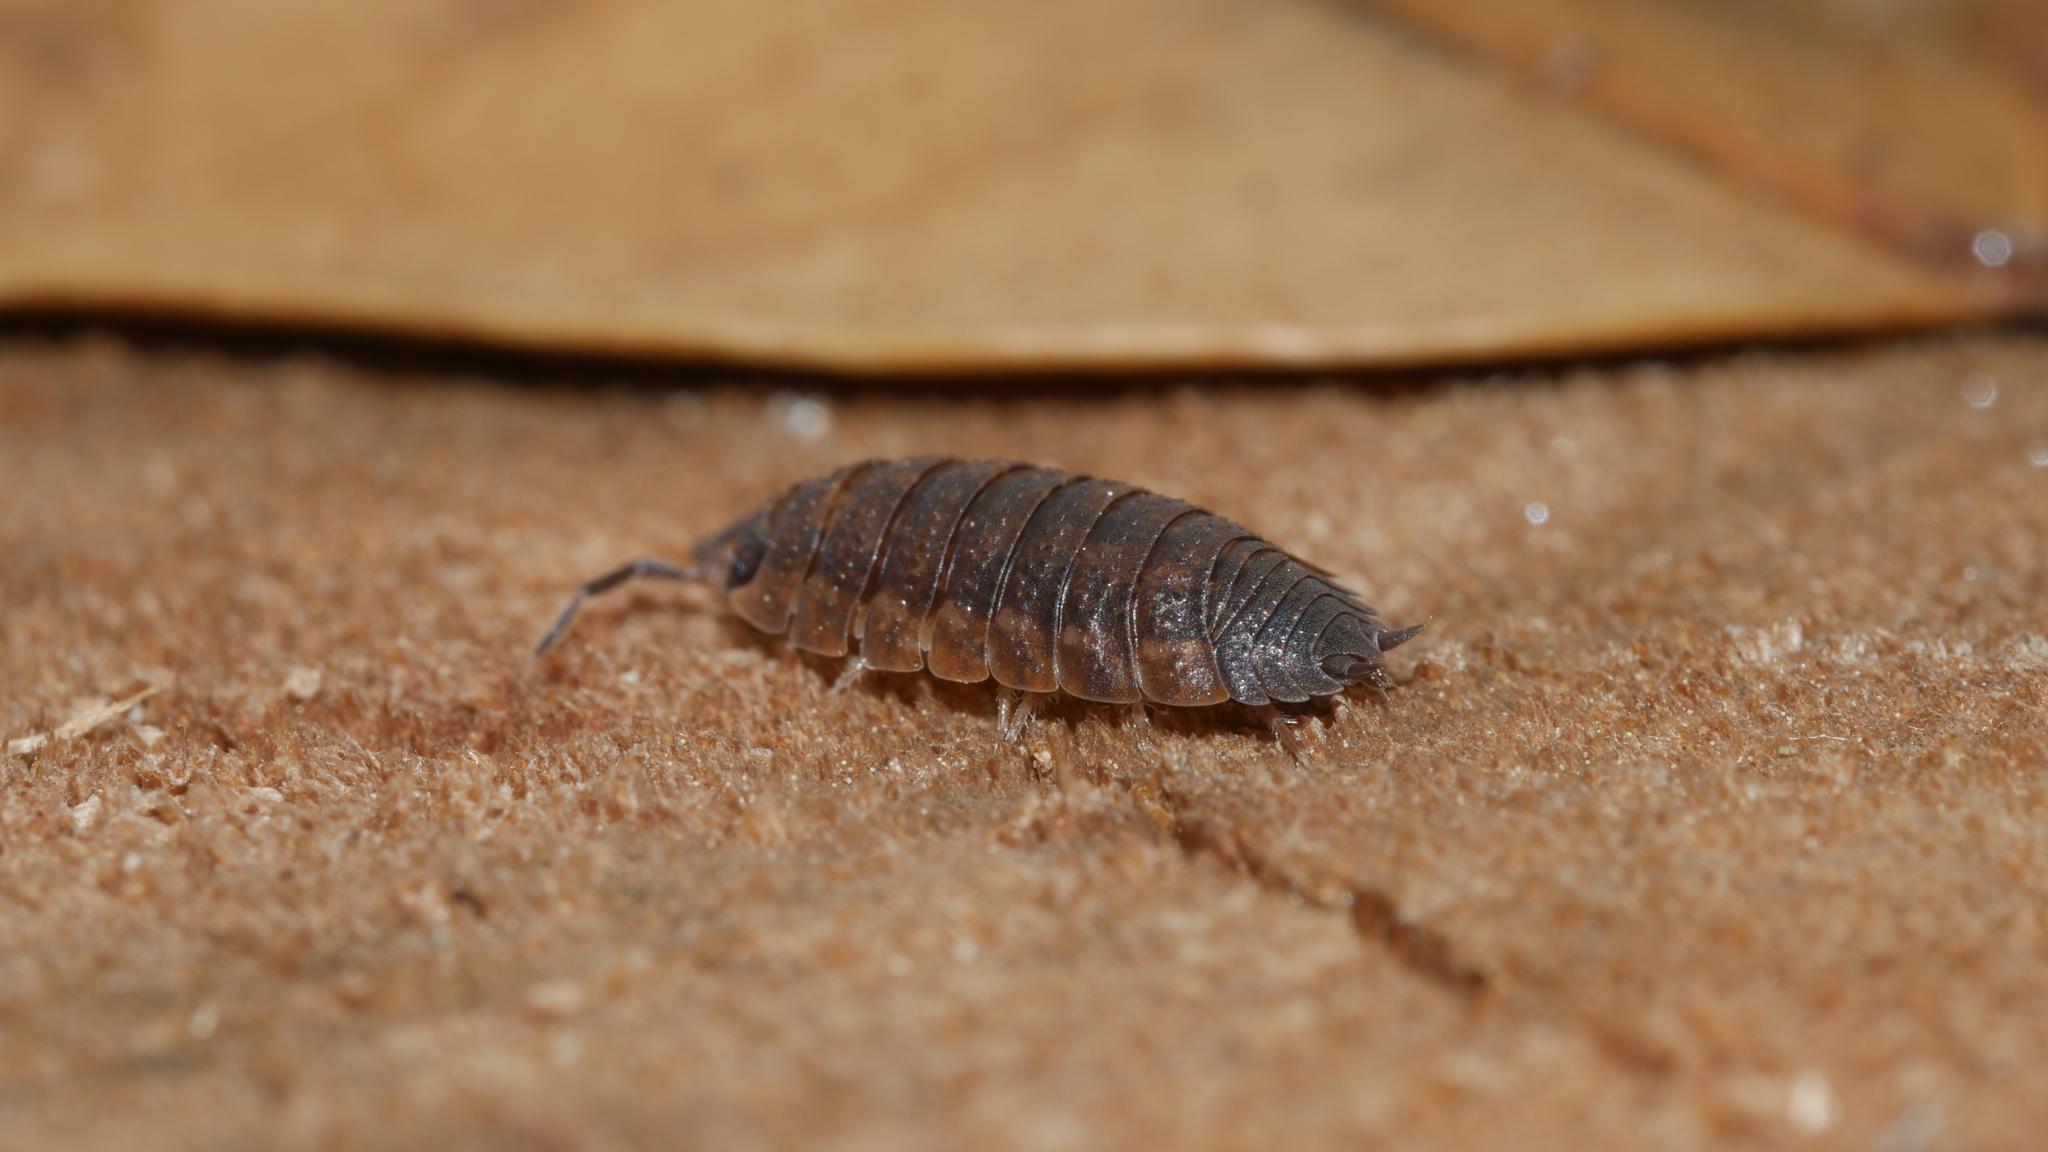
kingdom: Animalia
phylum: Arthropoda
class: Malacostraca
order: Isopoda
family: Porcellionidae
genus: Porcellio
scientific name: Porcellio scaber
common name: Common rough woodlouse
